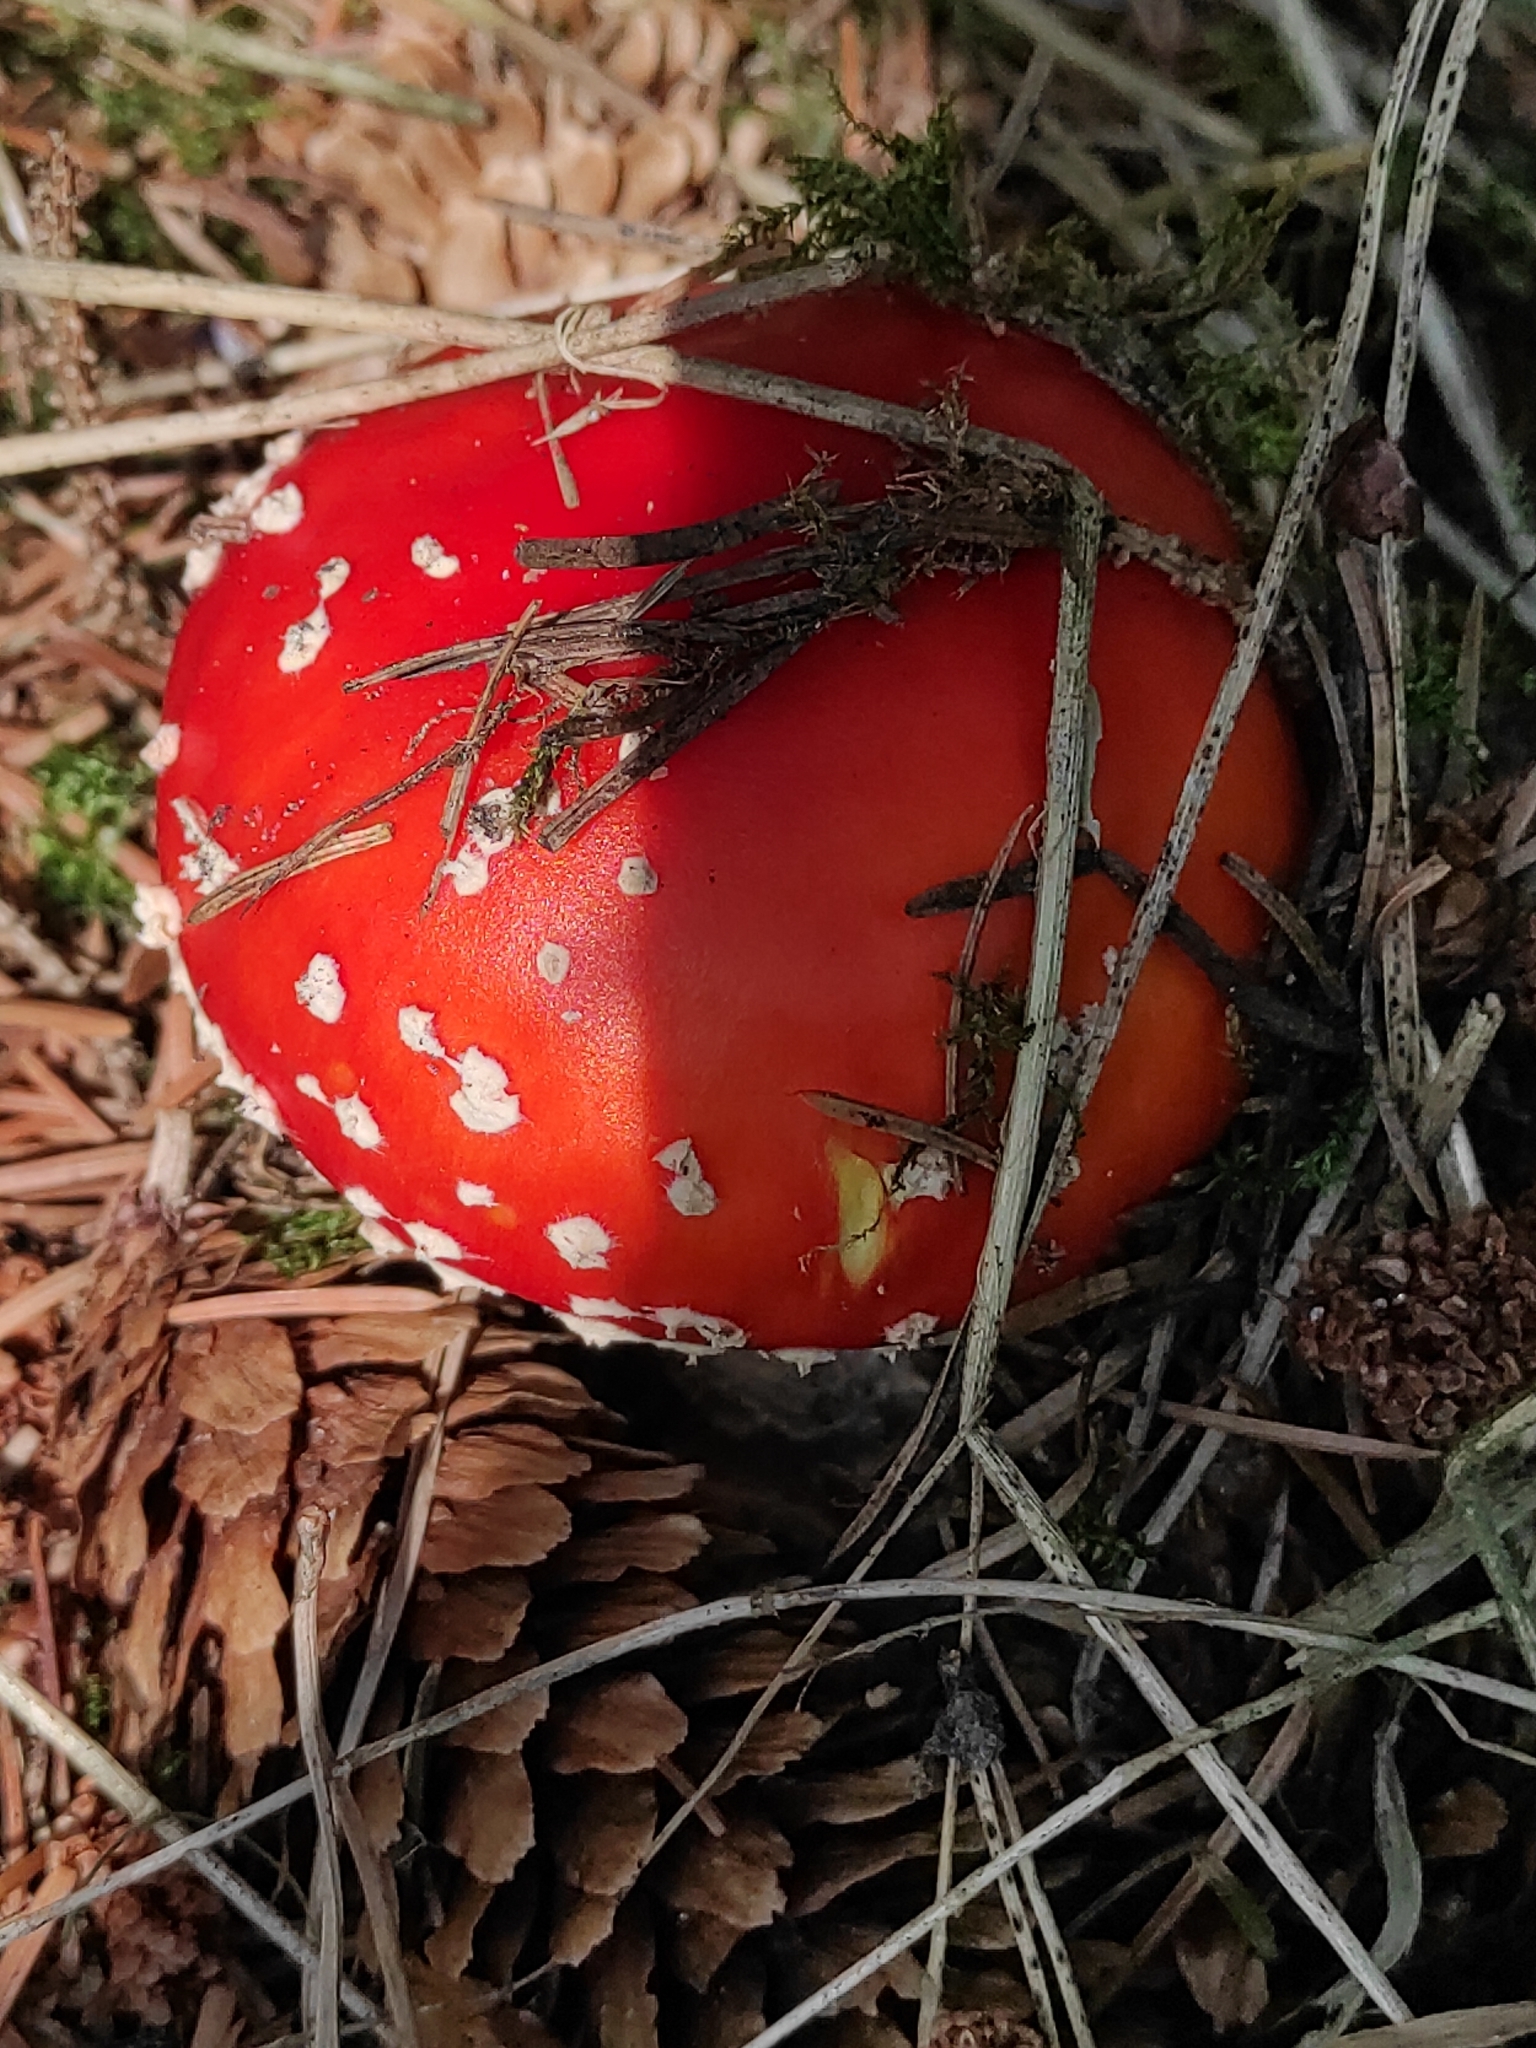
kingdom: Fungi
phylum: Basidiomycota
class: Agaricomycetes
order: Agaricales
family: Amanitaceae
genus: Amanita
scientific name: Amanita muscaria
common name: Fly agaric
